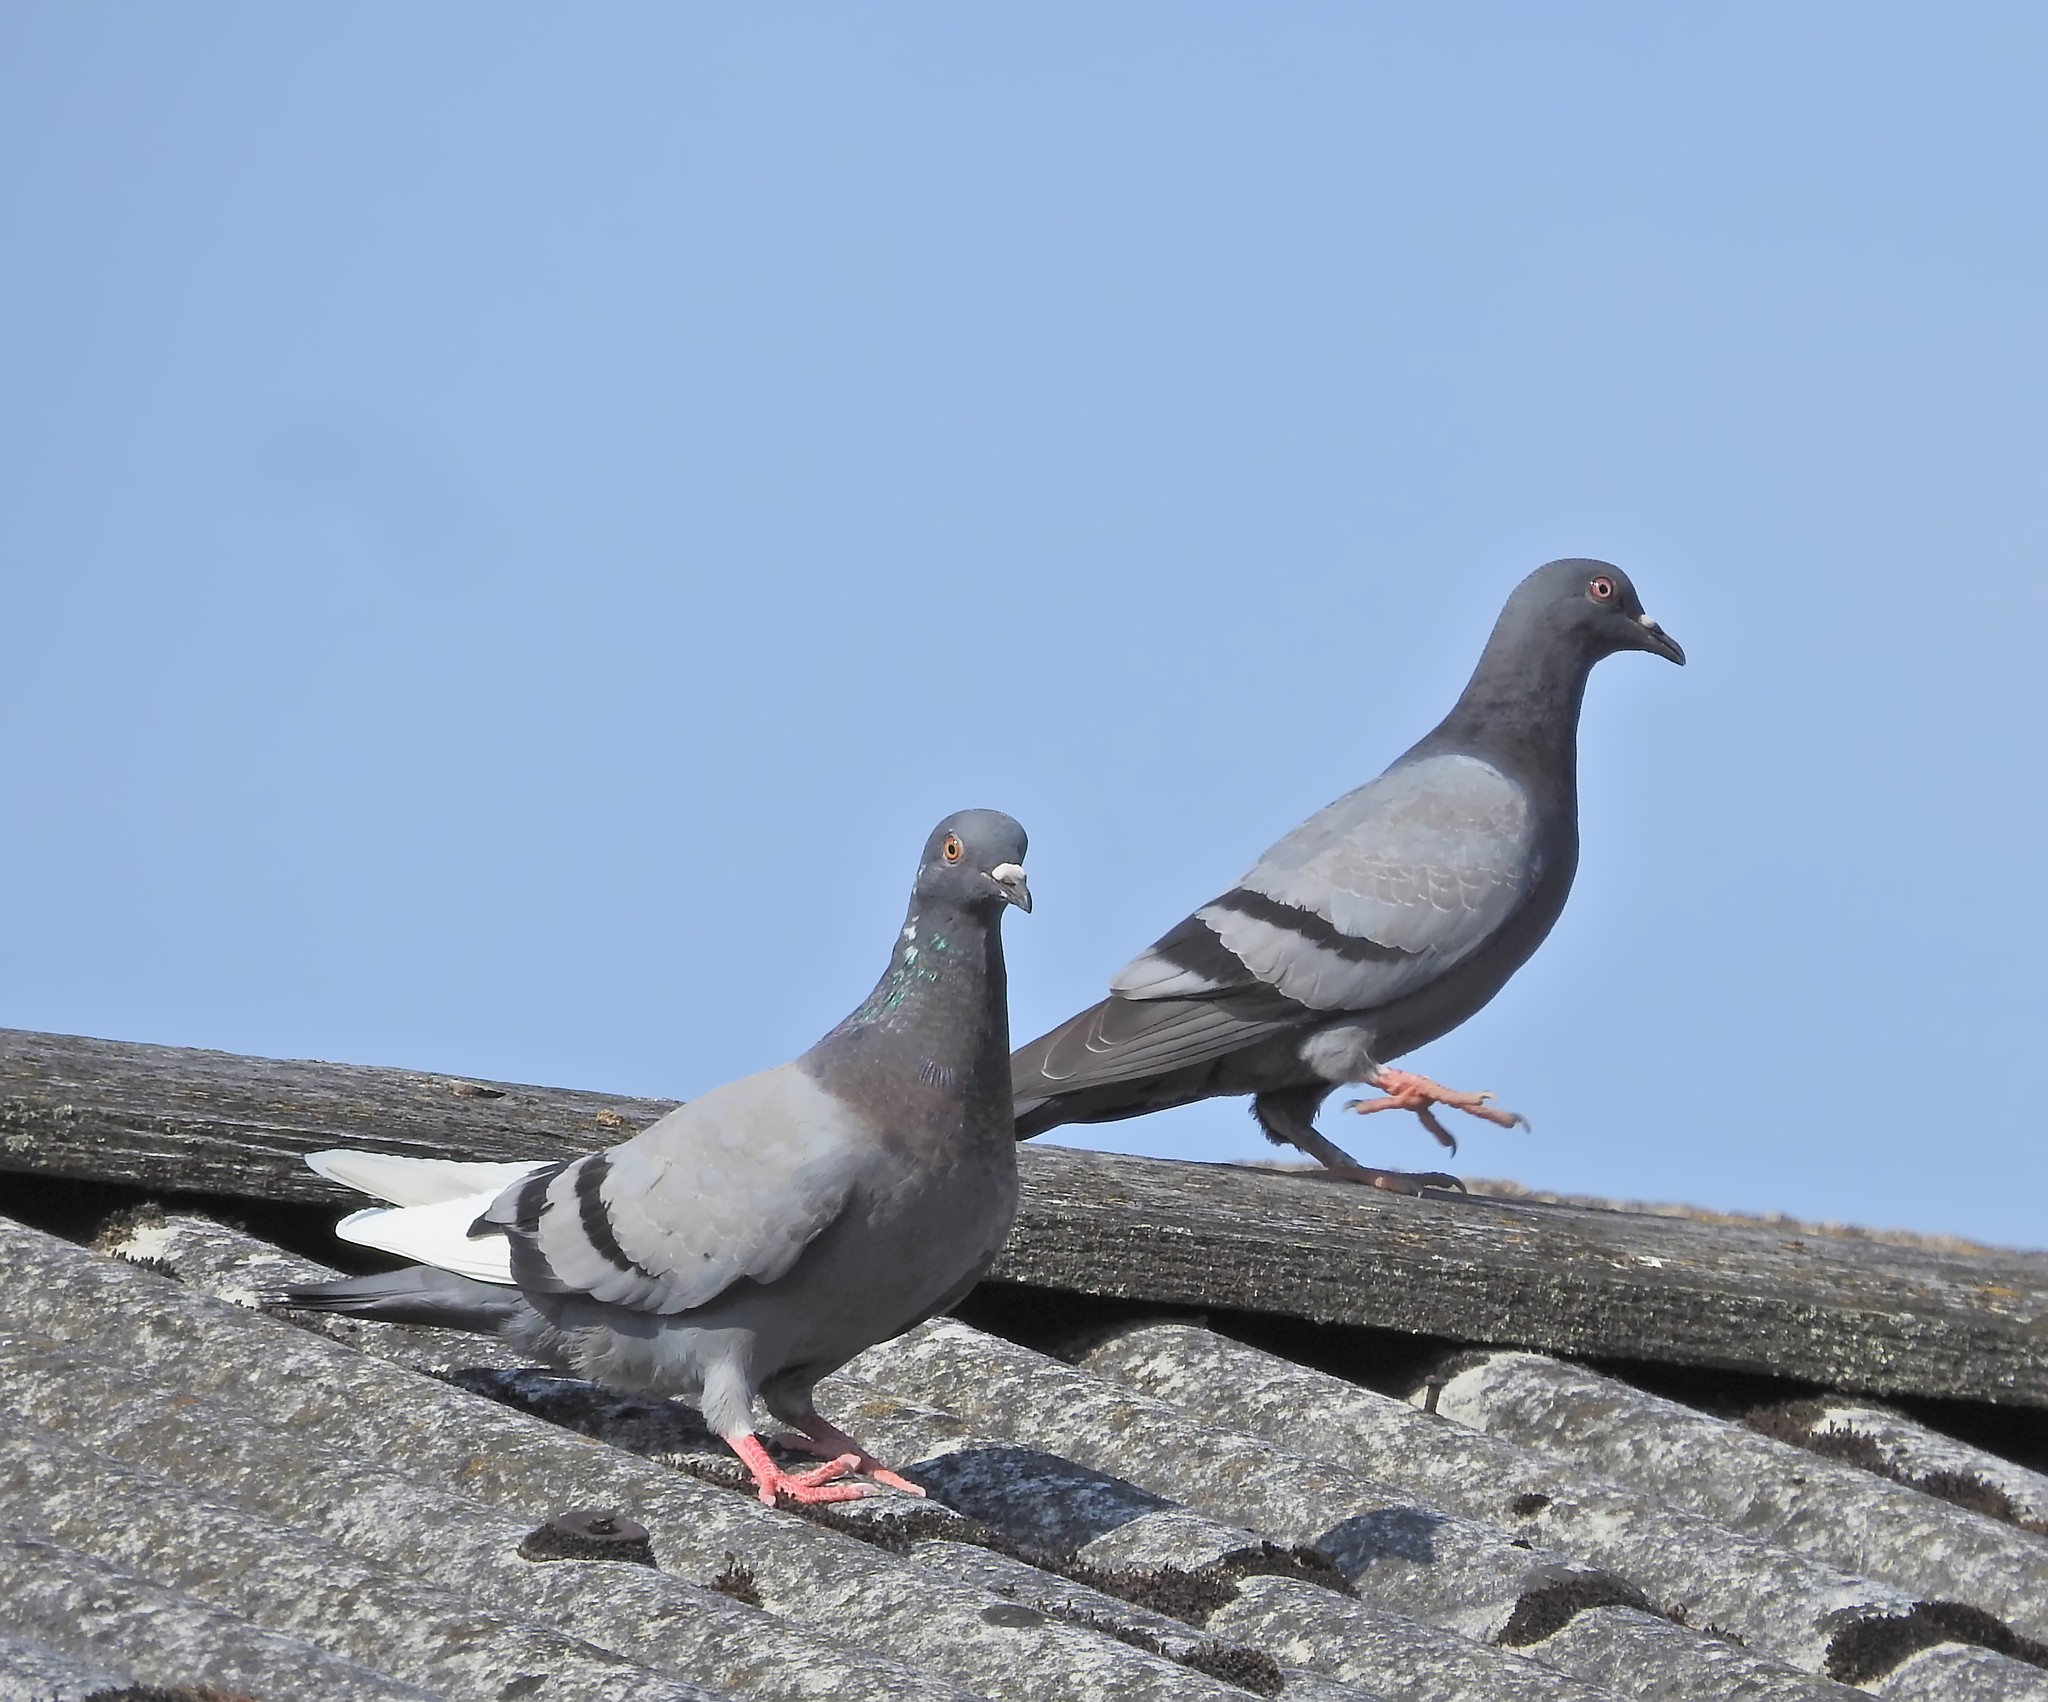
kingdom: Animalia
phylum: Chordata
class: Aves
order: Columbiformes
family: Columbidae
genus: Columba
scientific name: Columba livia
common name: Rock pigeon
